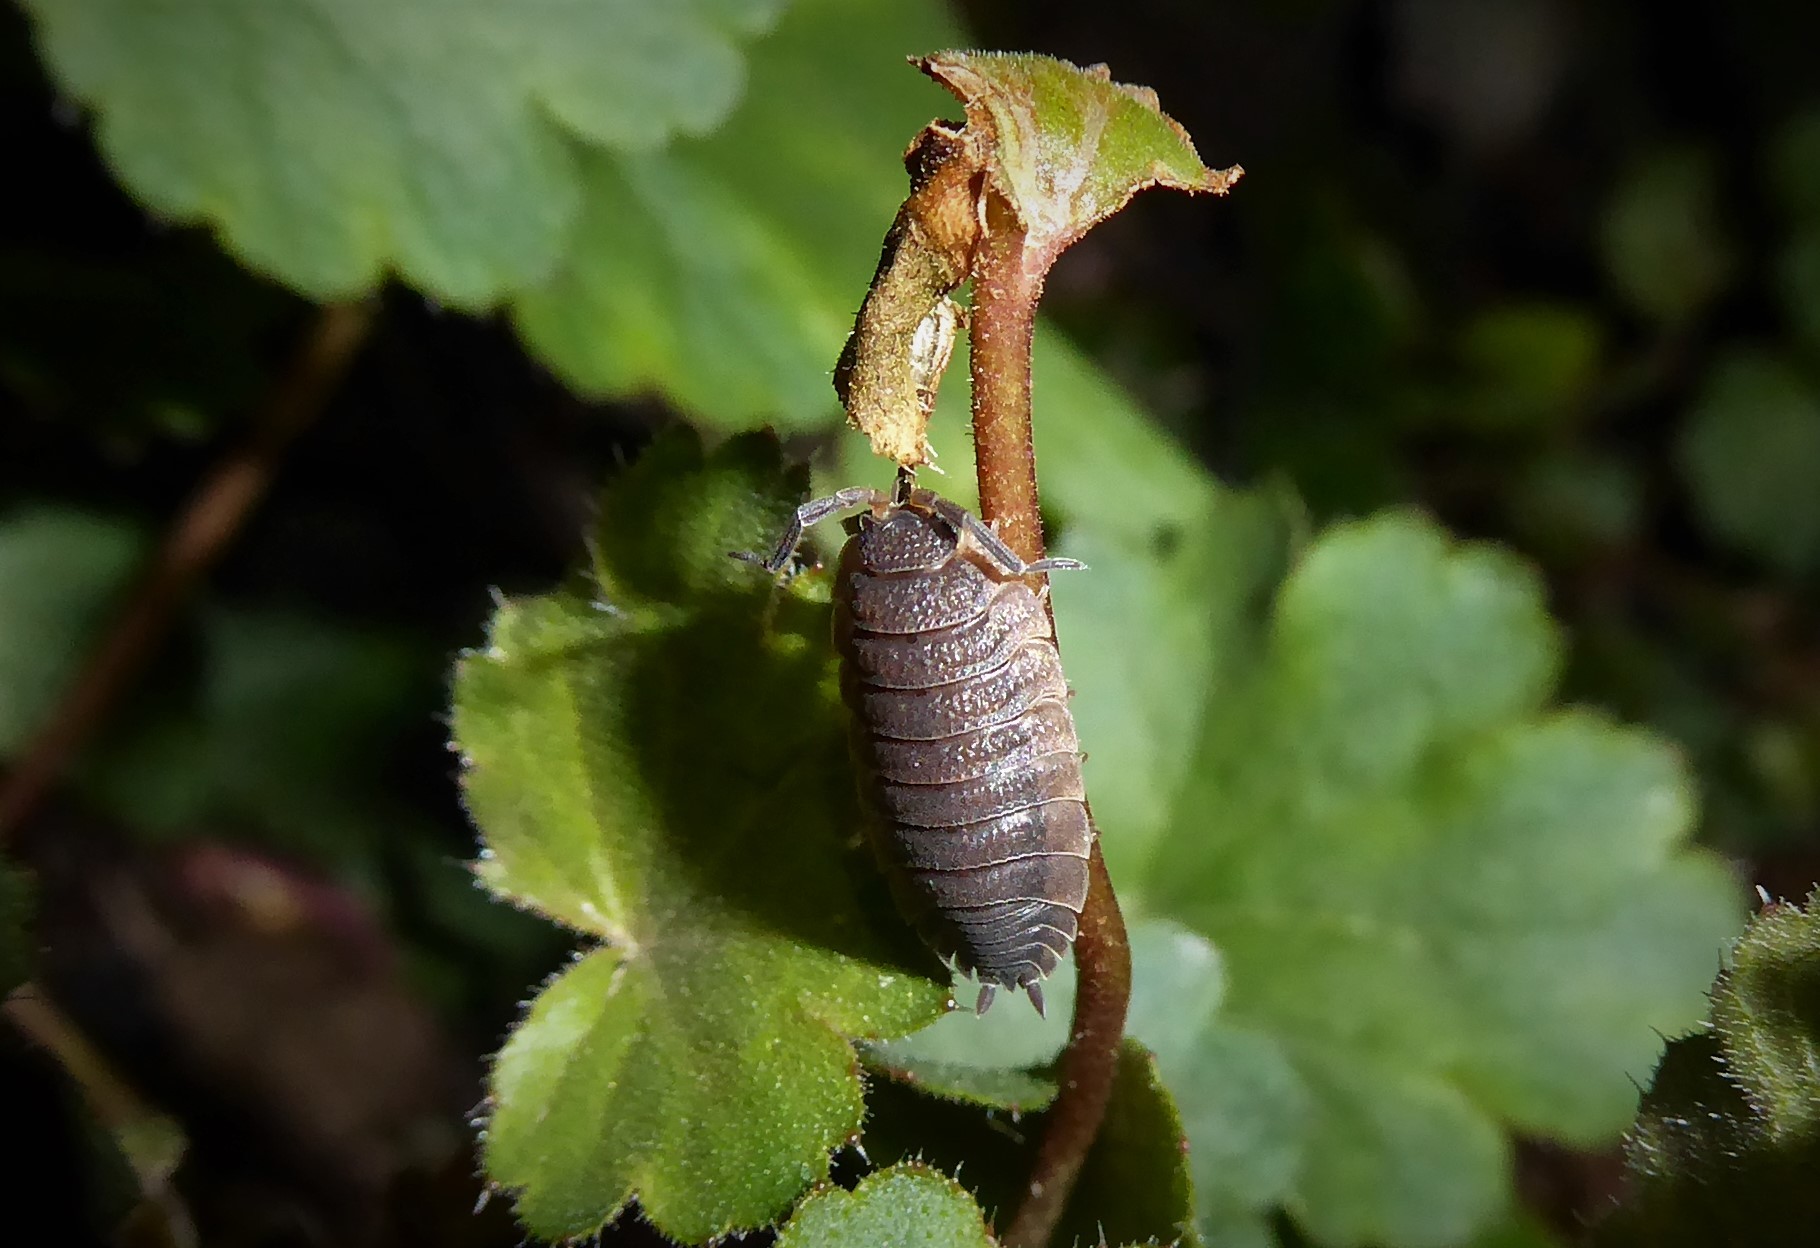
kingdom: Animalia
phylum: Arthropoda
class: Malacostraca
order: Isopoda
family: Porcellionidae
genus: Porcellio
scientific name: Porcellio scaber
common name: Common rough woodlouse
